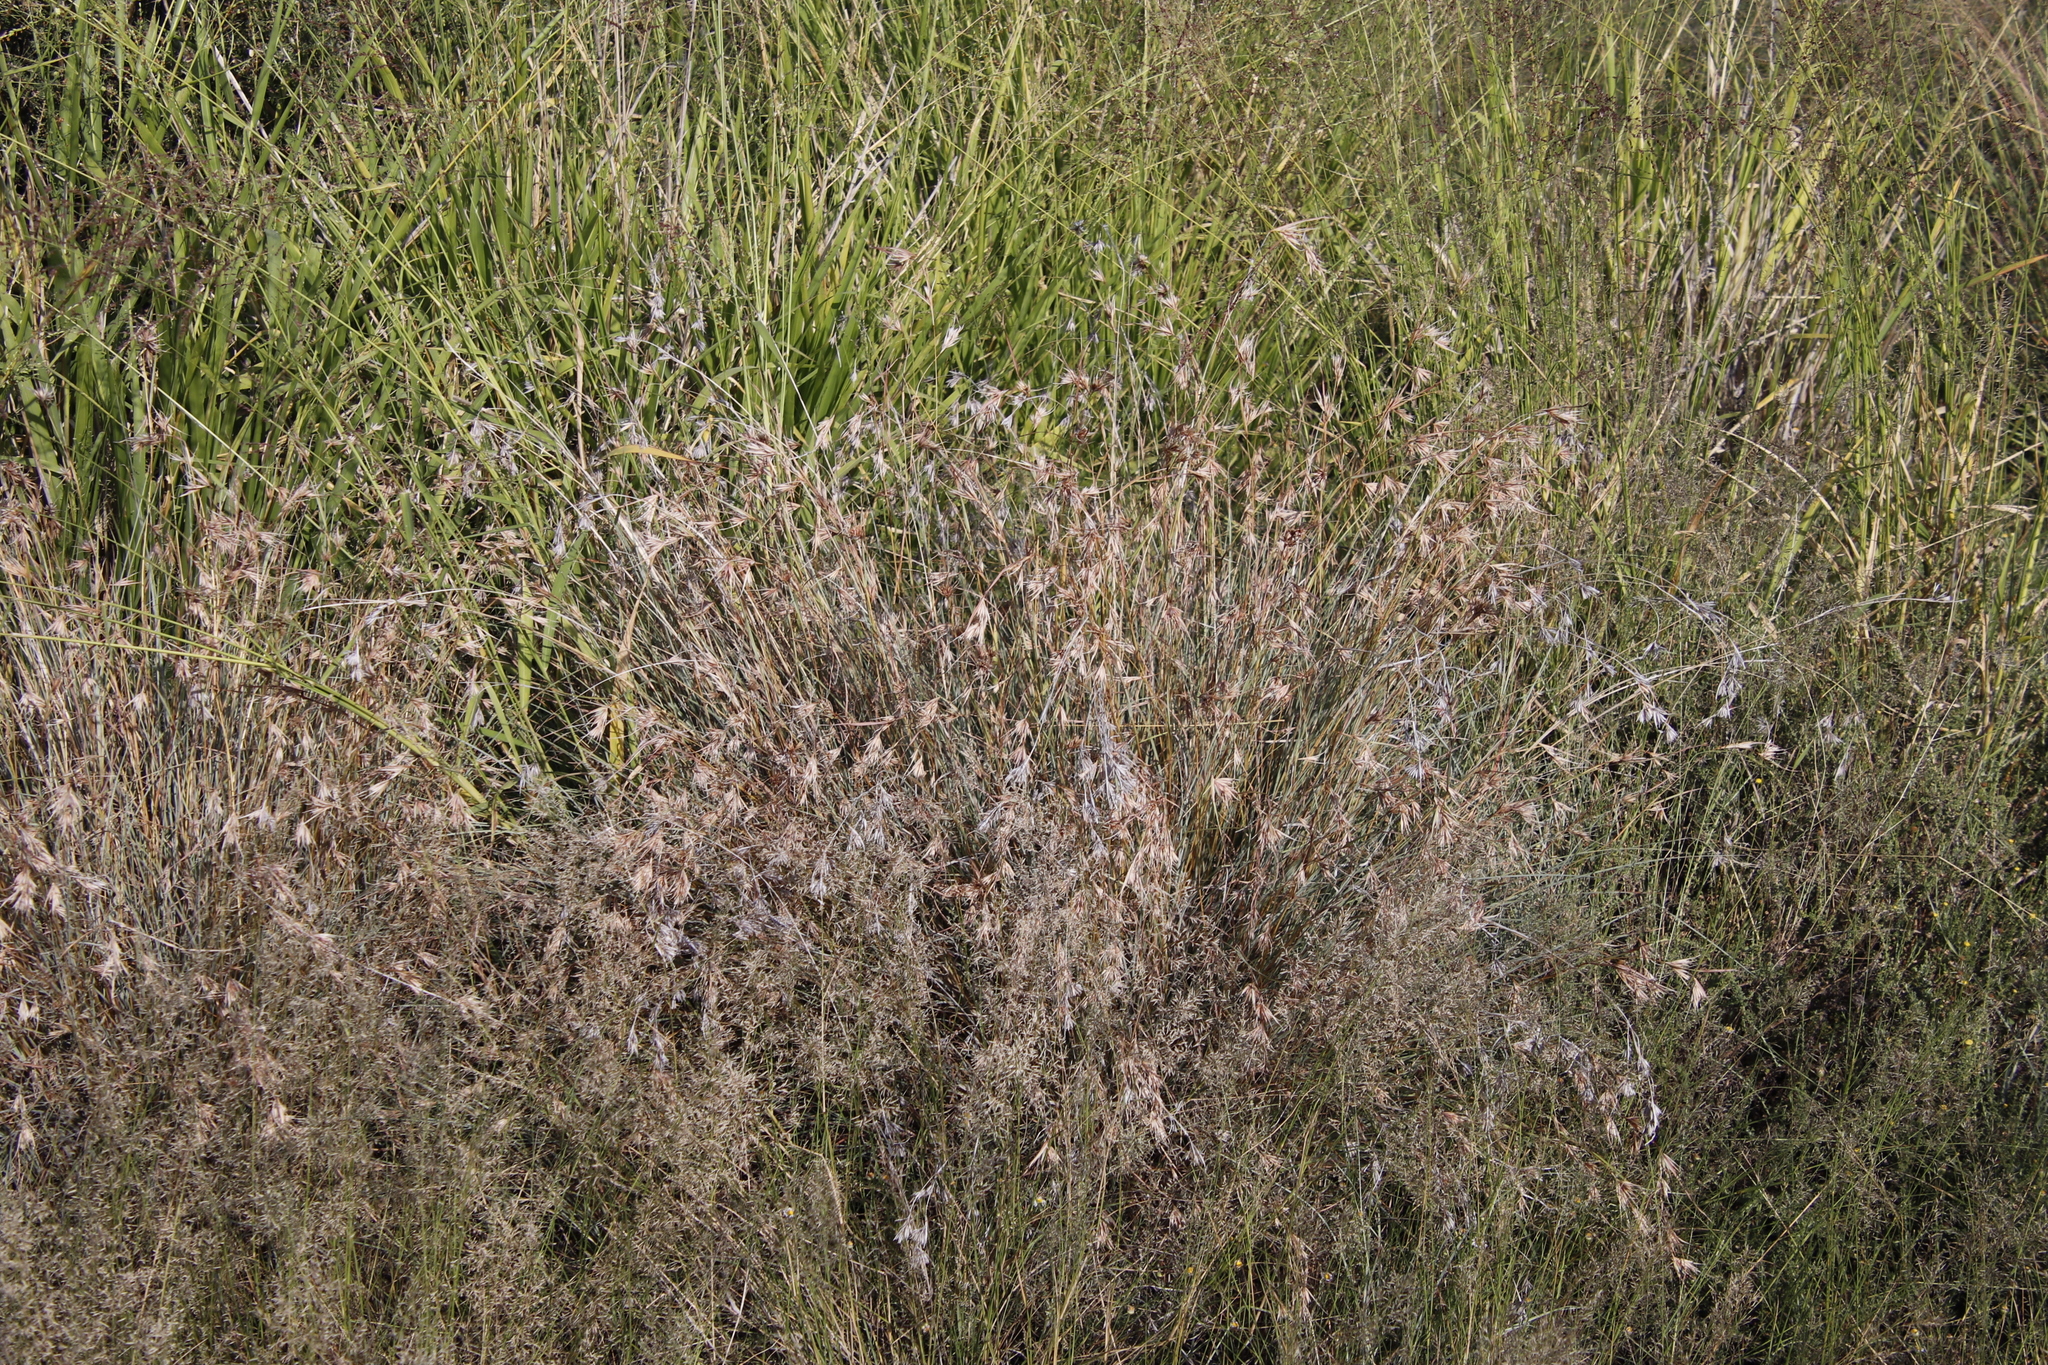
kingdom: Plantae
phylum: Tracheophyta
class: Liliopsida
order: Poales
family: Poaceae
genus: Themeda
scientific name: Themeda triandra
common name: Kangaroo grass
